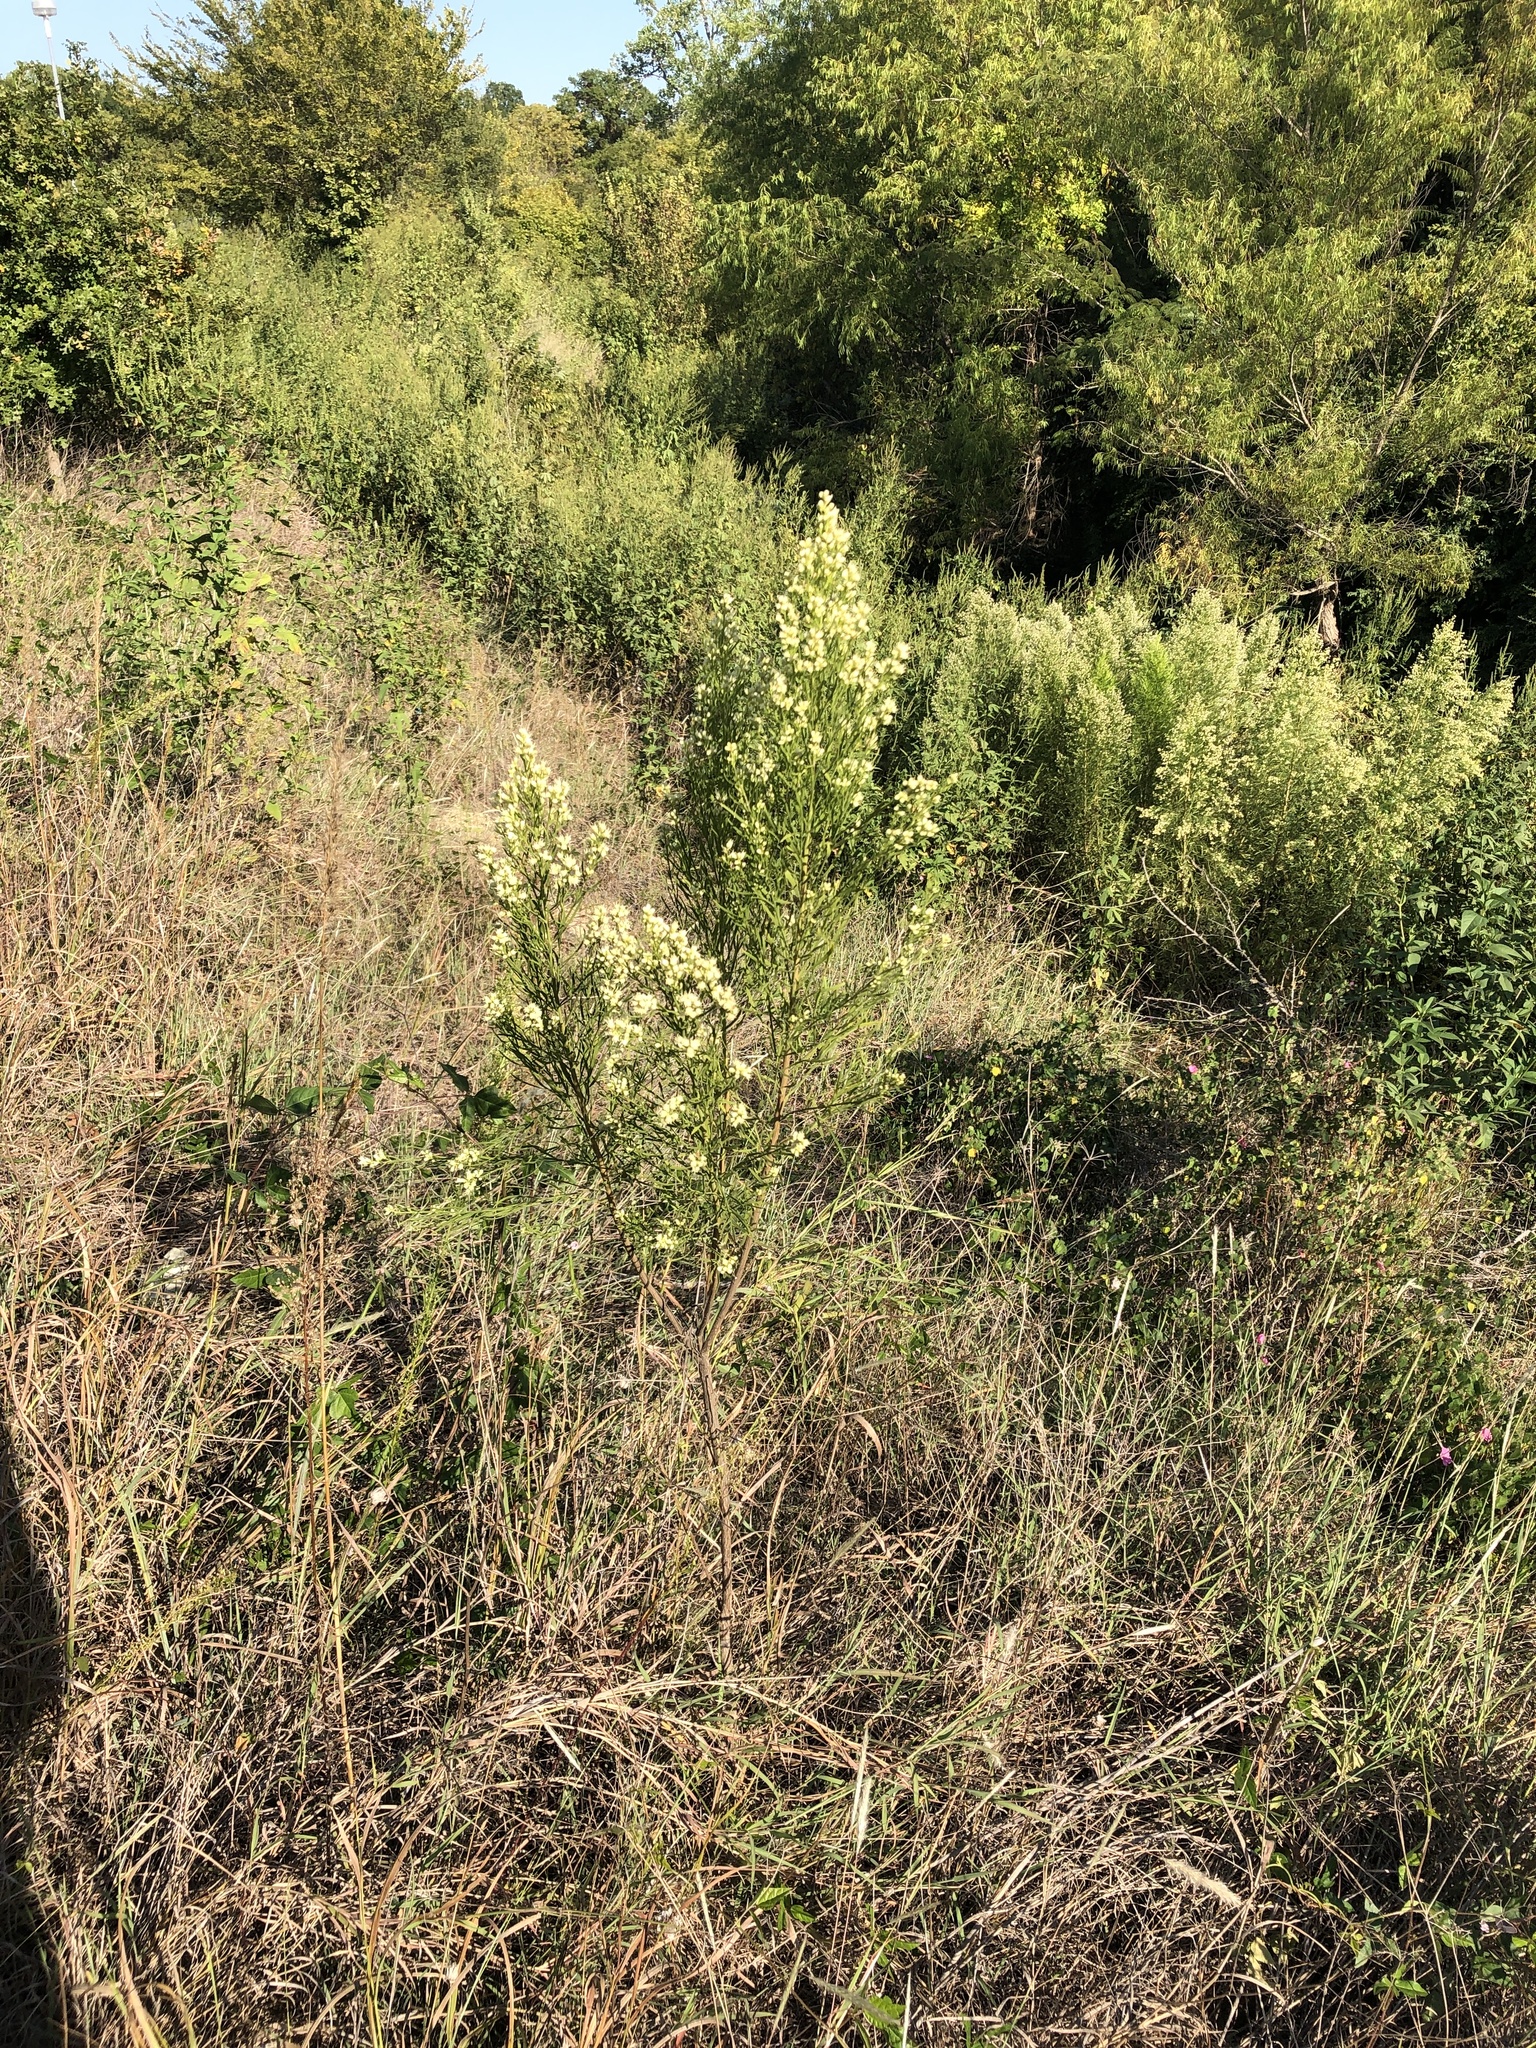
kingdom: Plantae
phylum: Tracheophyta
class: Magnoliopsida
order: Asterales
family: Asteraceae
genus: Baccharis
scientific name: Baccharis neglecta
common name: Roosevelt-weed
